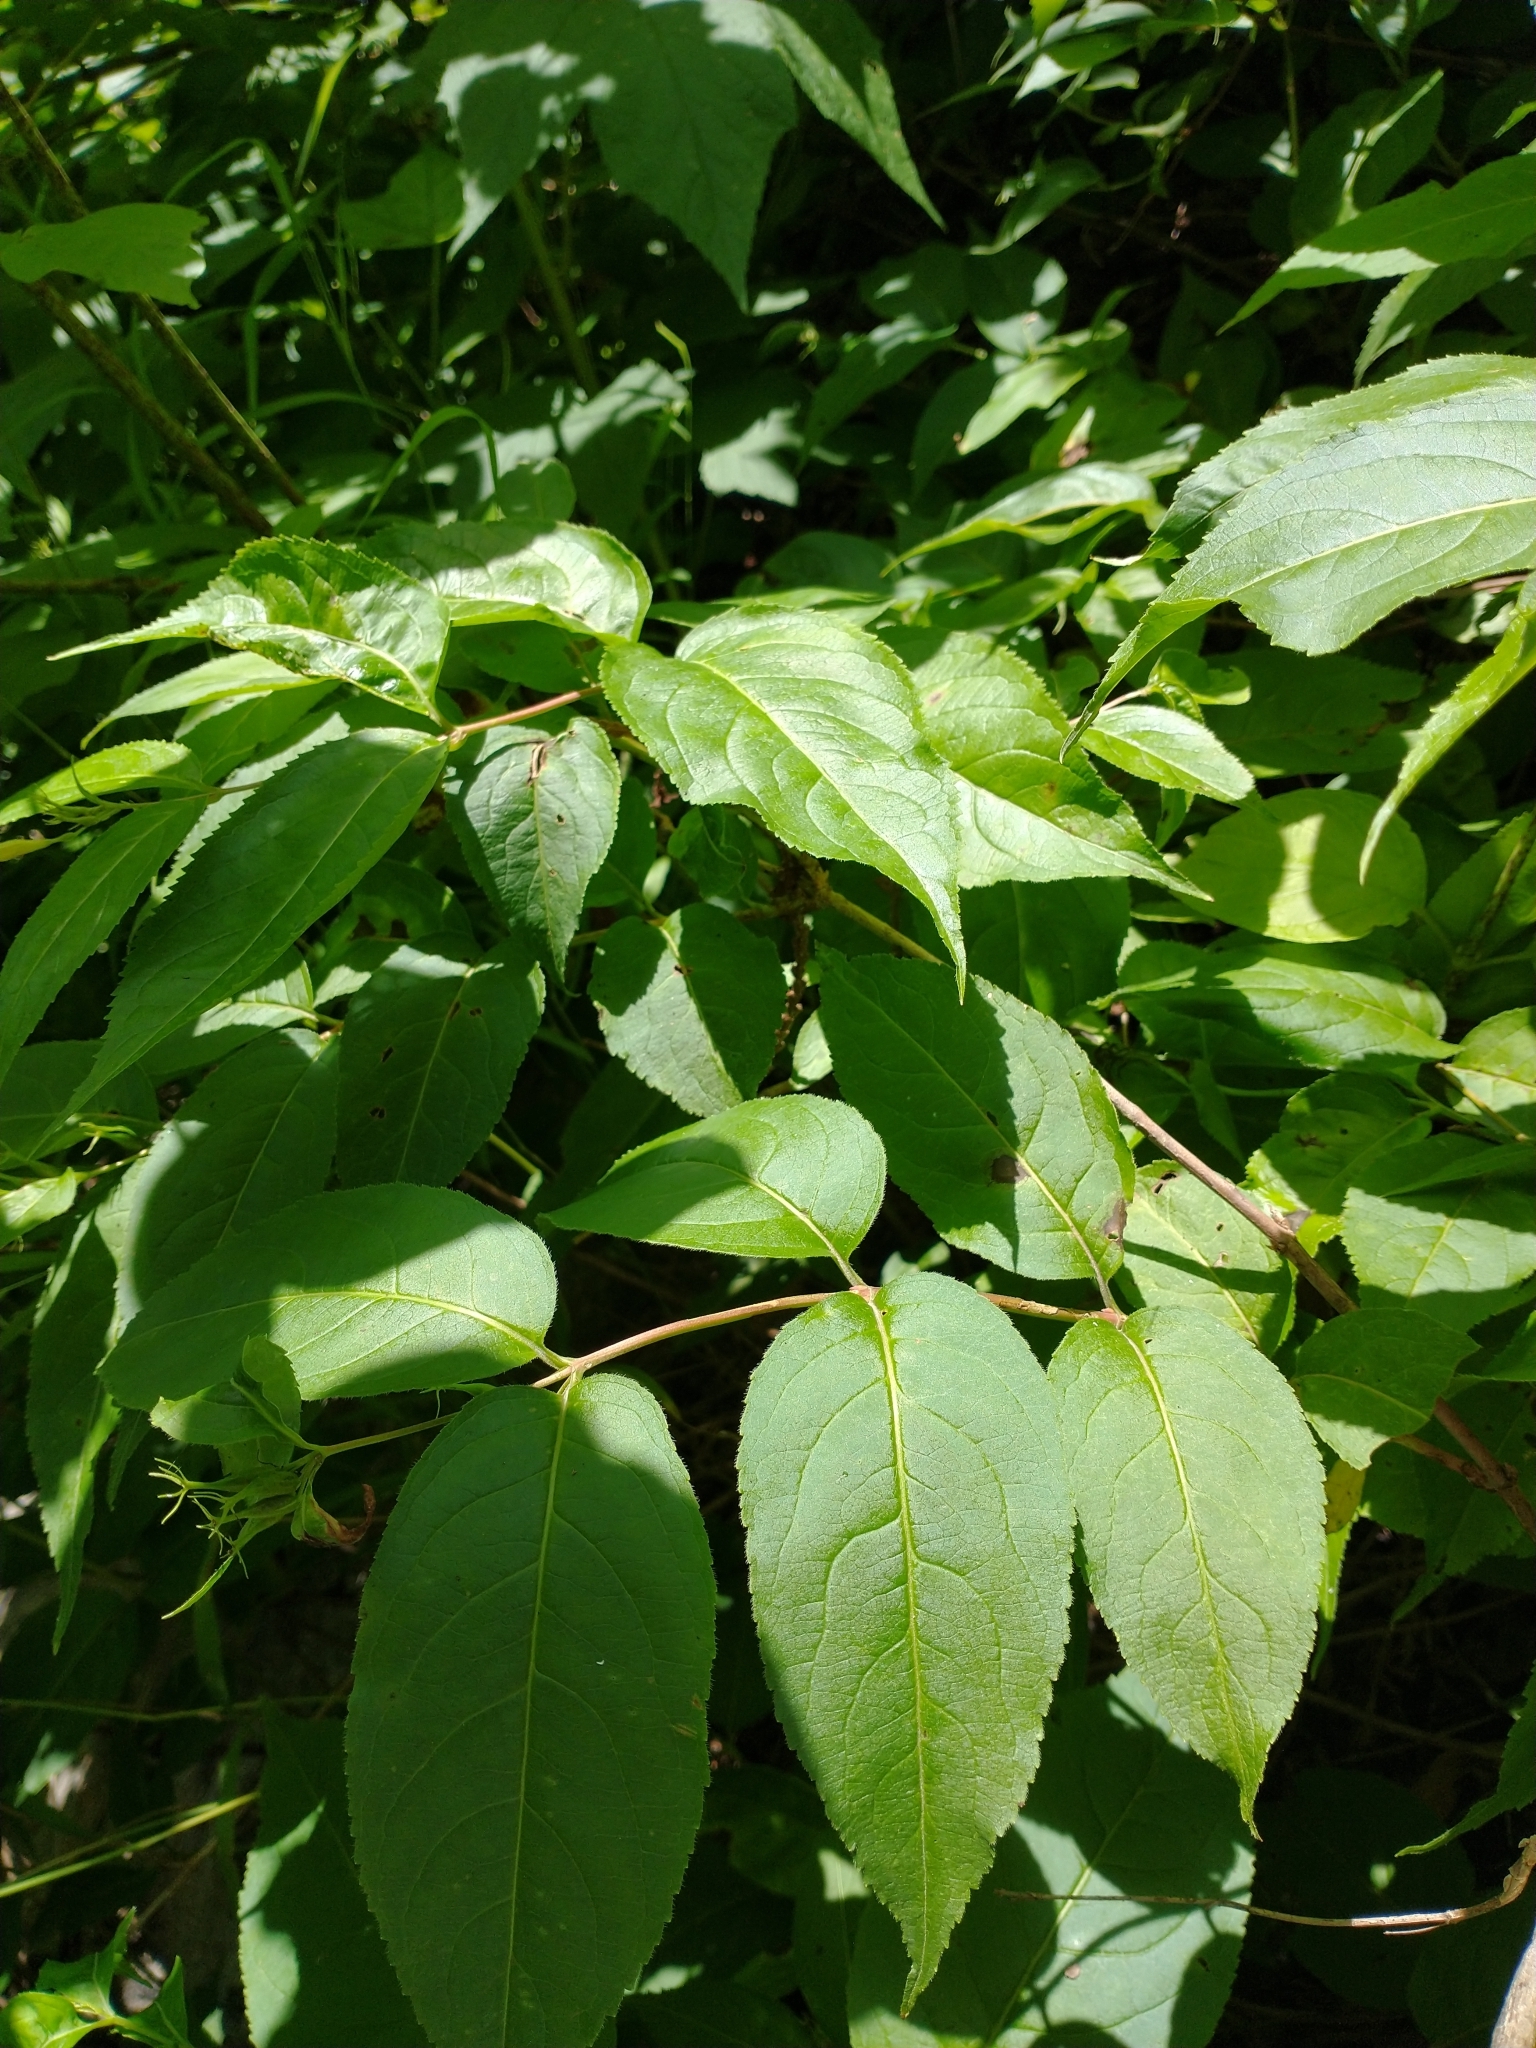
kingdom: Plantae
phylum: Tracheophyta
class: Magnoliopsida
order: Dipsacales
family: Caprifoliaceae
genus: Diervilla
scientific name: Diervilla lonicera
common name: Bush-honeysuckle
